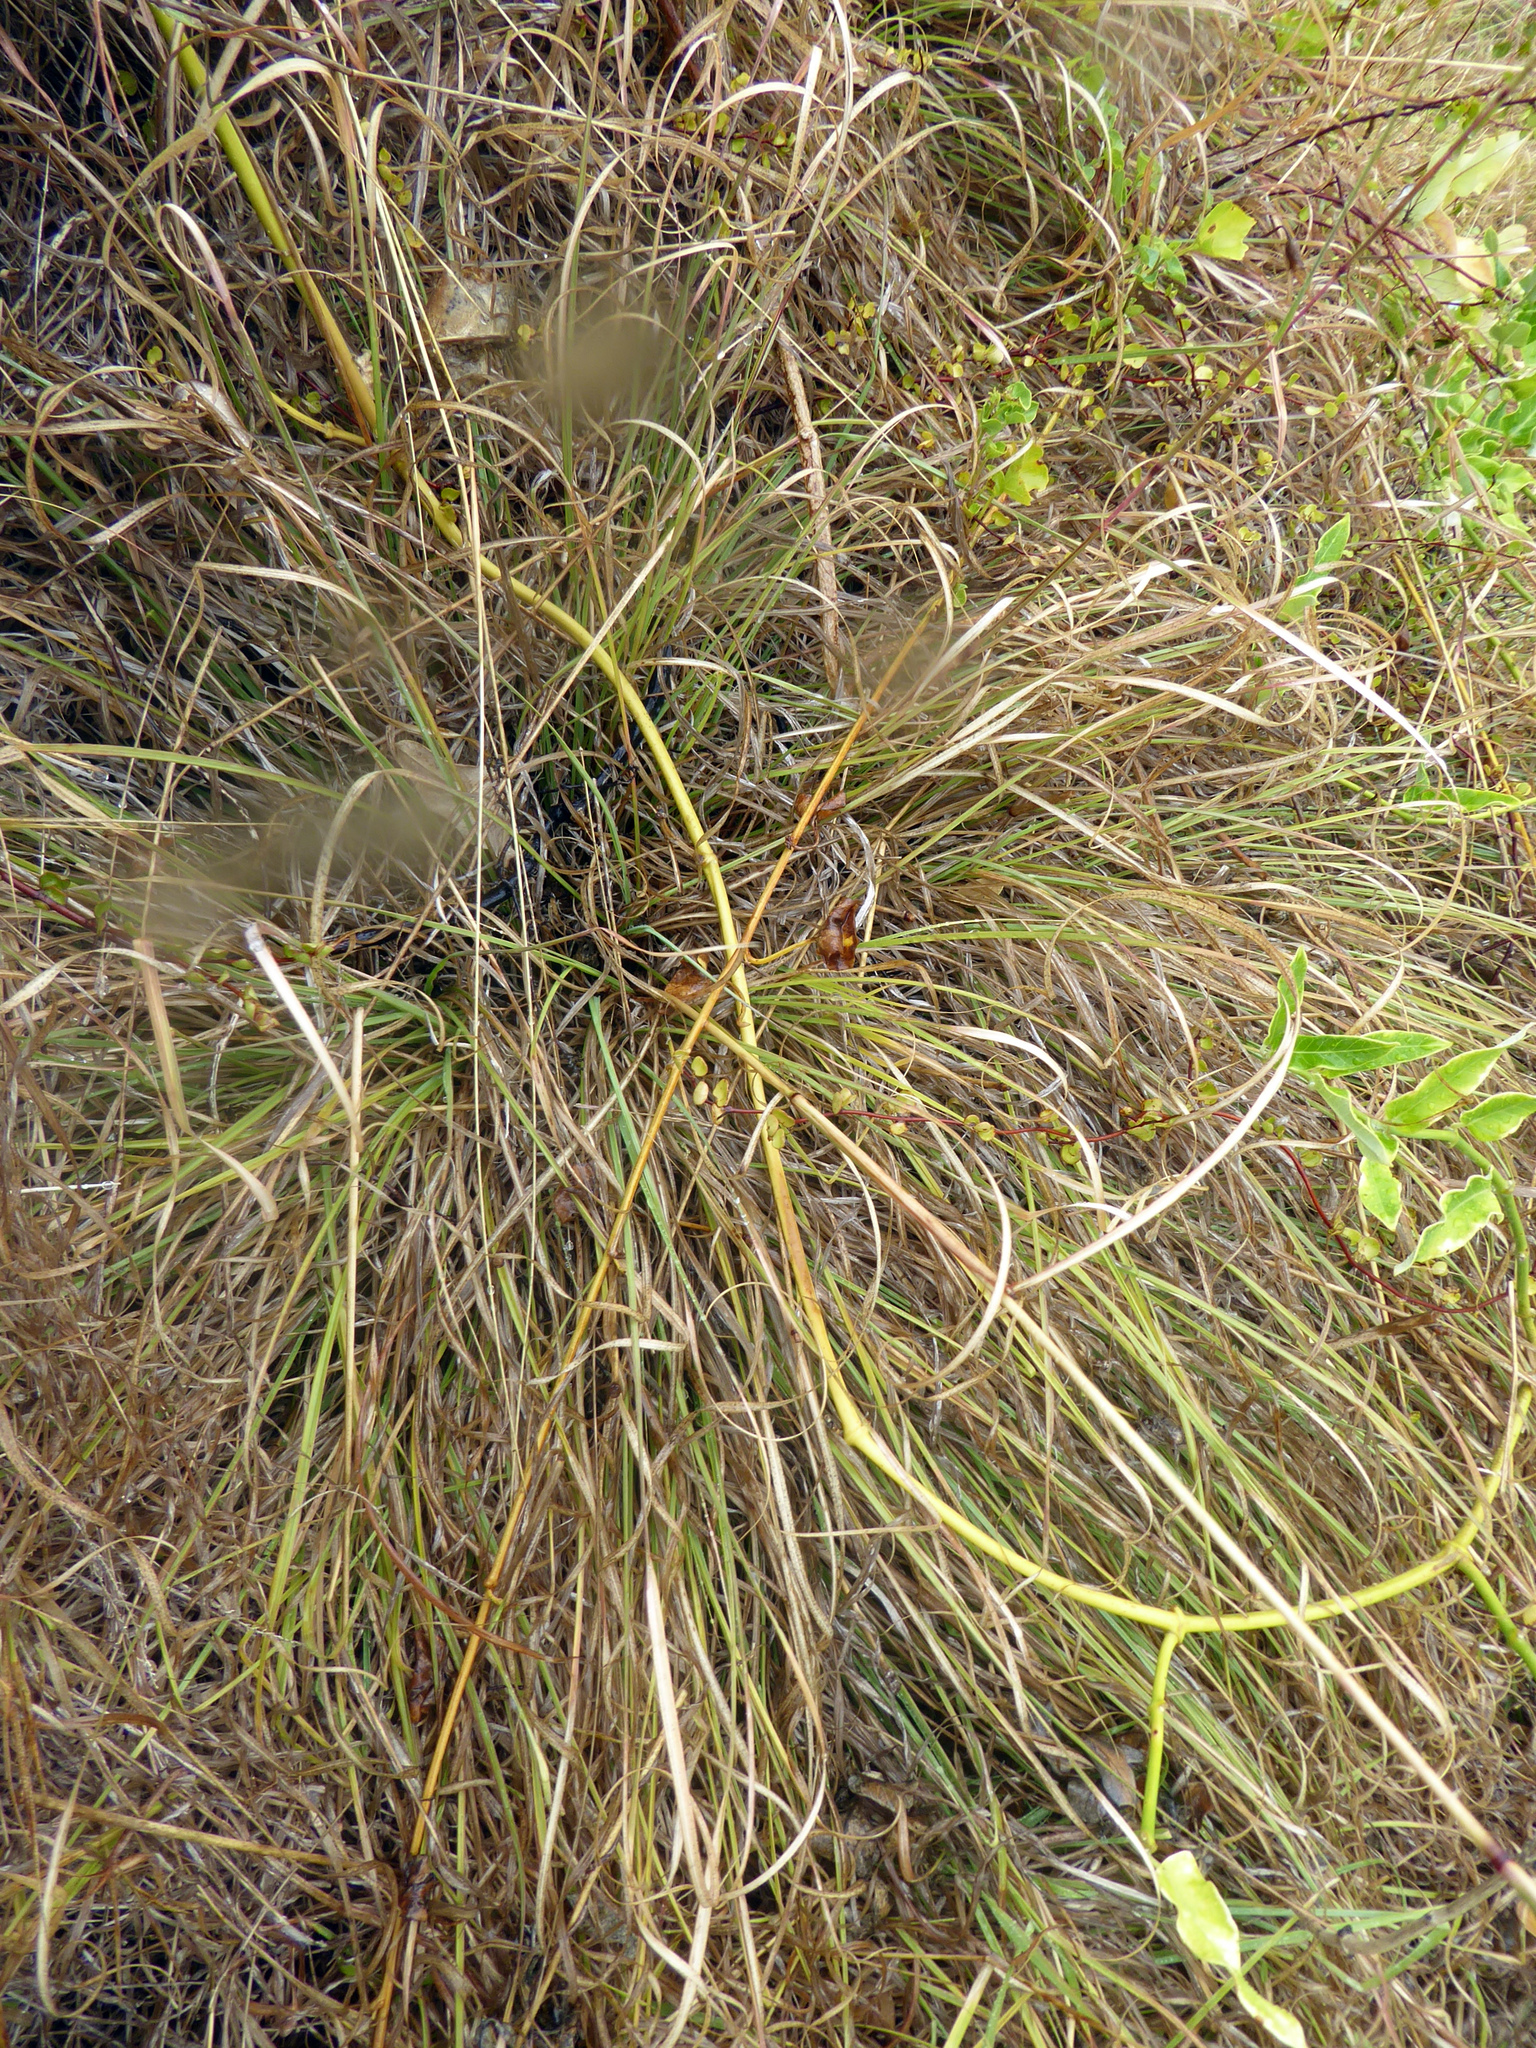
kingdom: Plantae
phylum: Tracheophyta
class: Liliopsida
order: Poales
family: Poaceae
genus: Cymbopogon
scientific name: Cymbopogon refractus
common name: Barbwire grass
